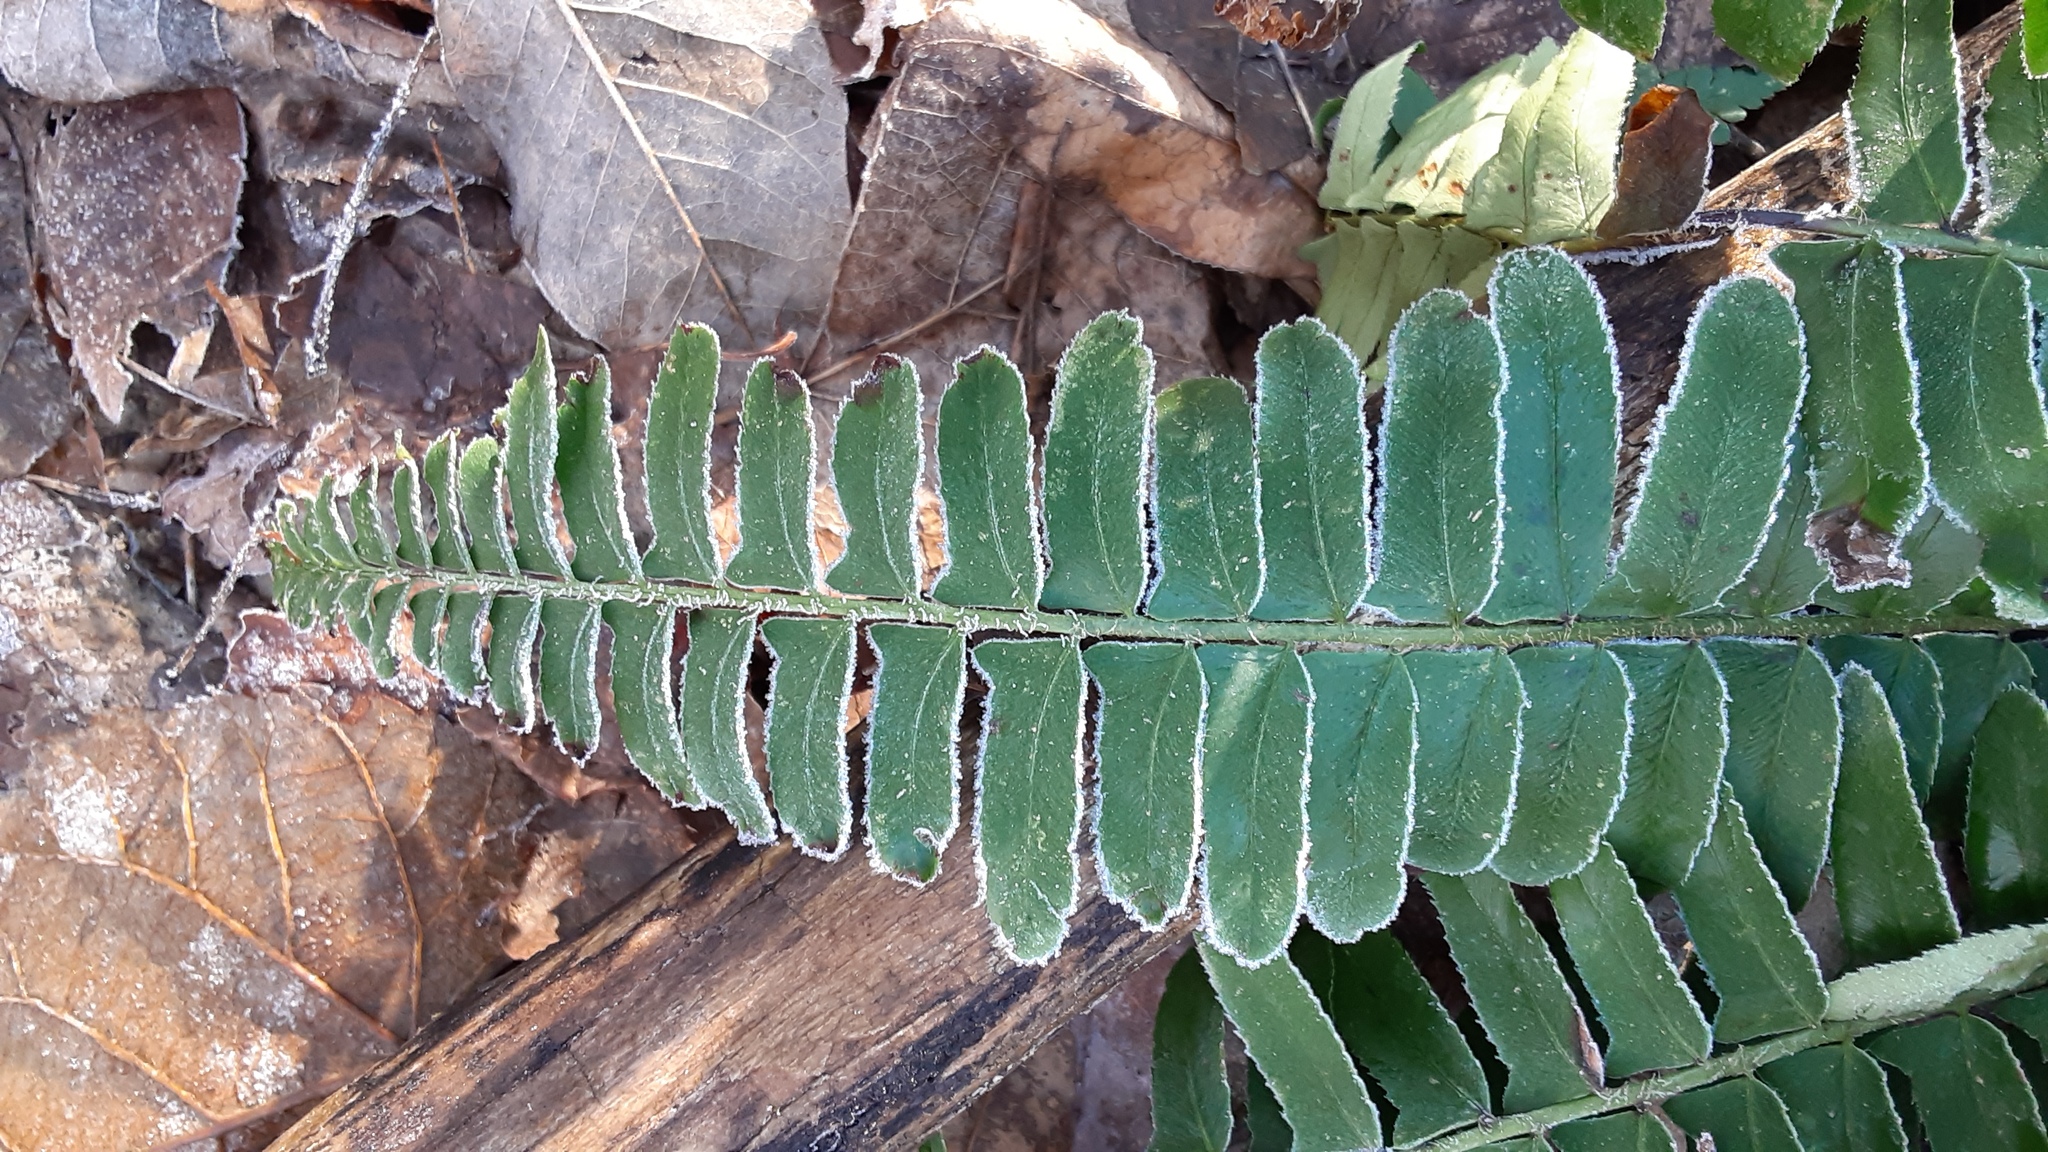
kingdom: Plantae
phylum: Tracheophyta
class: Polypodiopsida
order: Polypodiales
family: Dryopteridaceae
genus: Polystichum
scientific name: Polystichum acrostichoides
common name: Christmas fern
